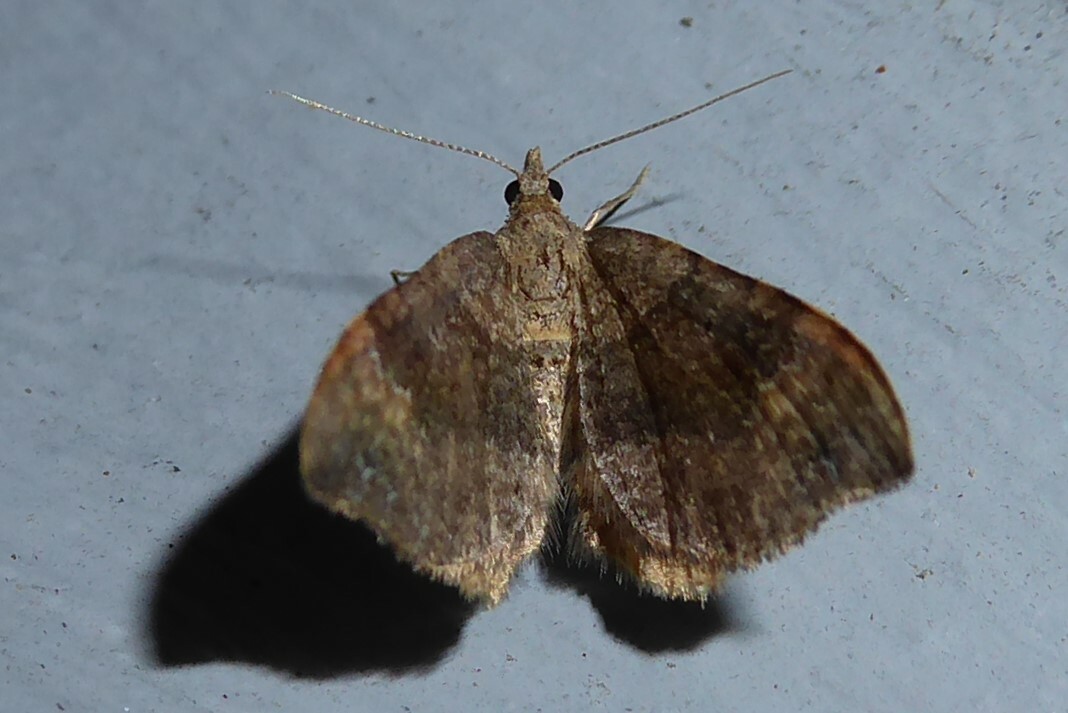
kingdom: Animalia
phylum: Arthropoda
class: Insecta
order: Lepidoptera
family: Geometridae
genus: Homodotis
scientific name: Homodotis megaspilata
